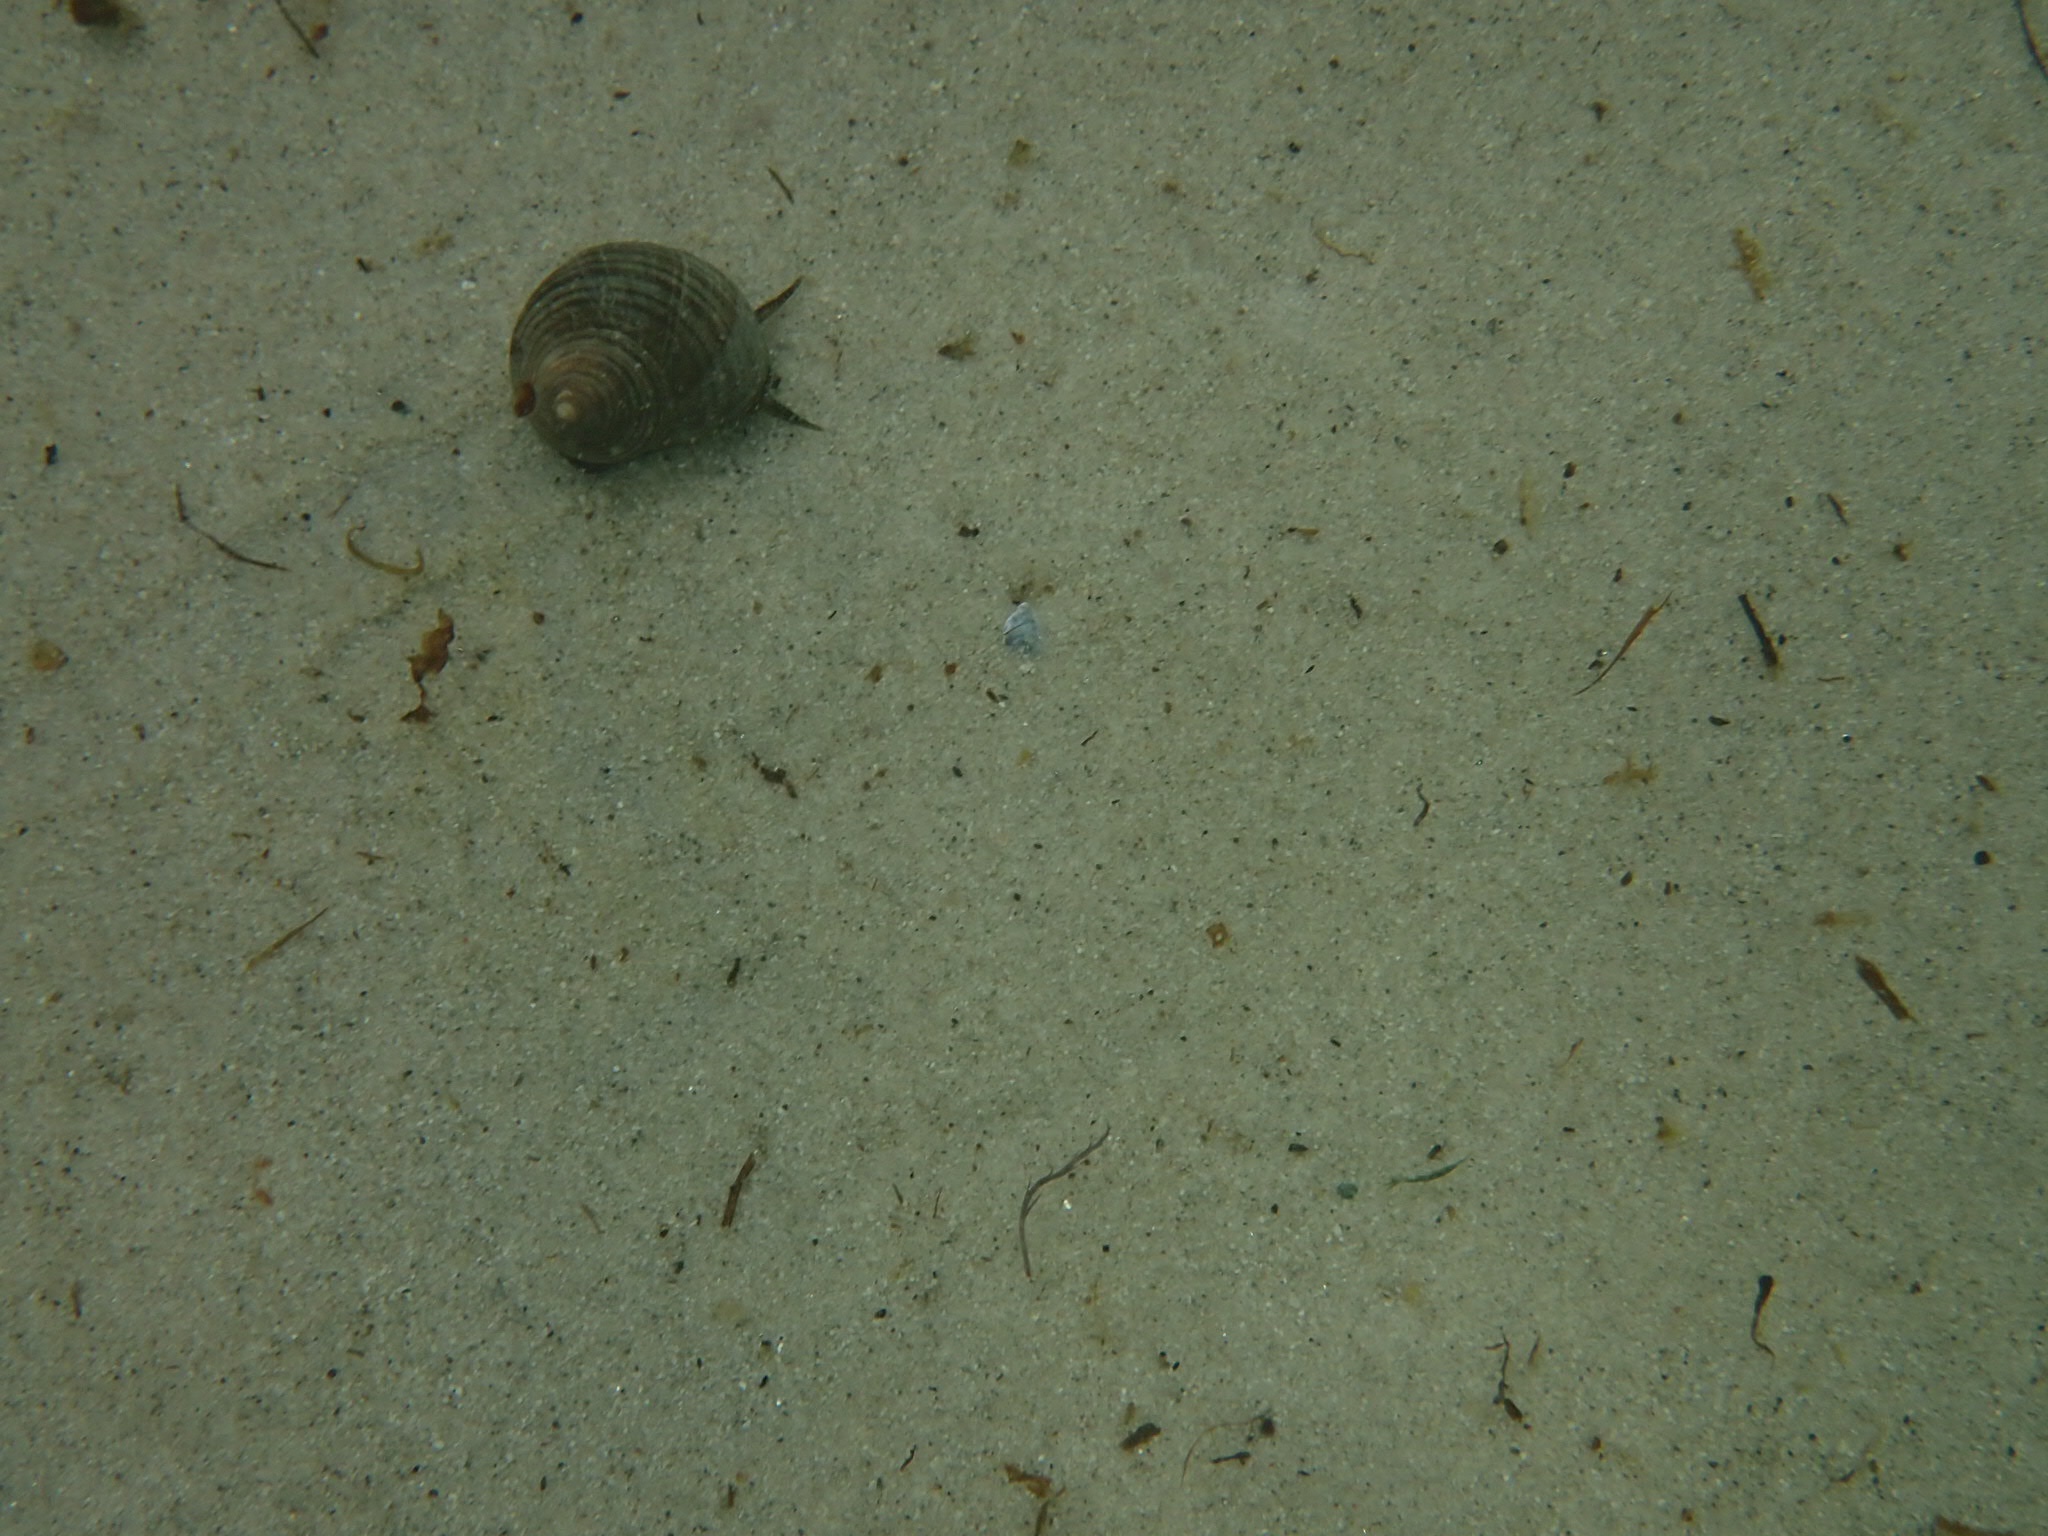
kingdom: Animalia
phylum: Mollusca
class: Gastropoda
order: Littorinimorpha
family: Littorinidae
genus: Littorina
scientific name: Littorina littorea
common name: Common periwinkle
